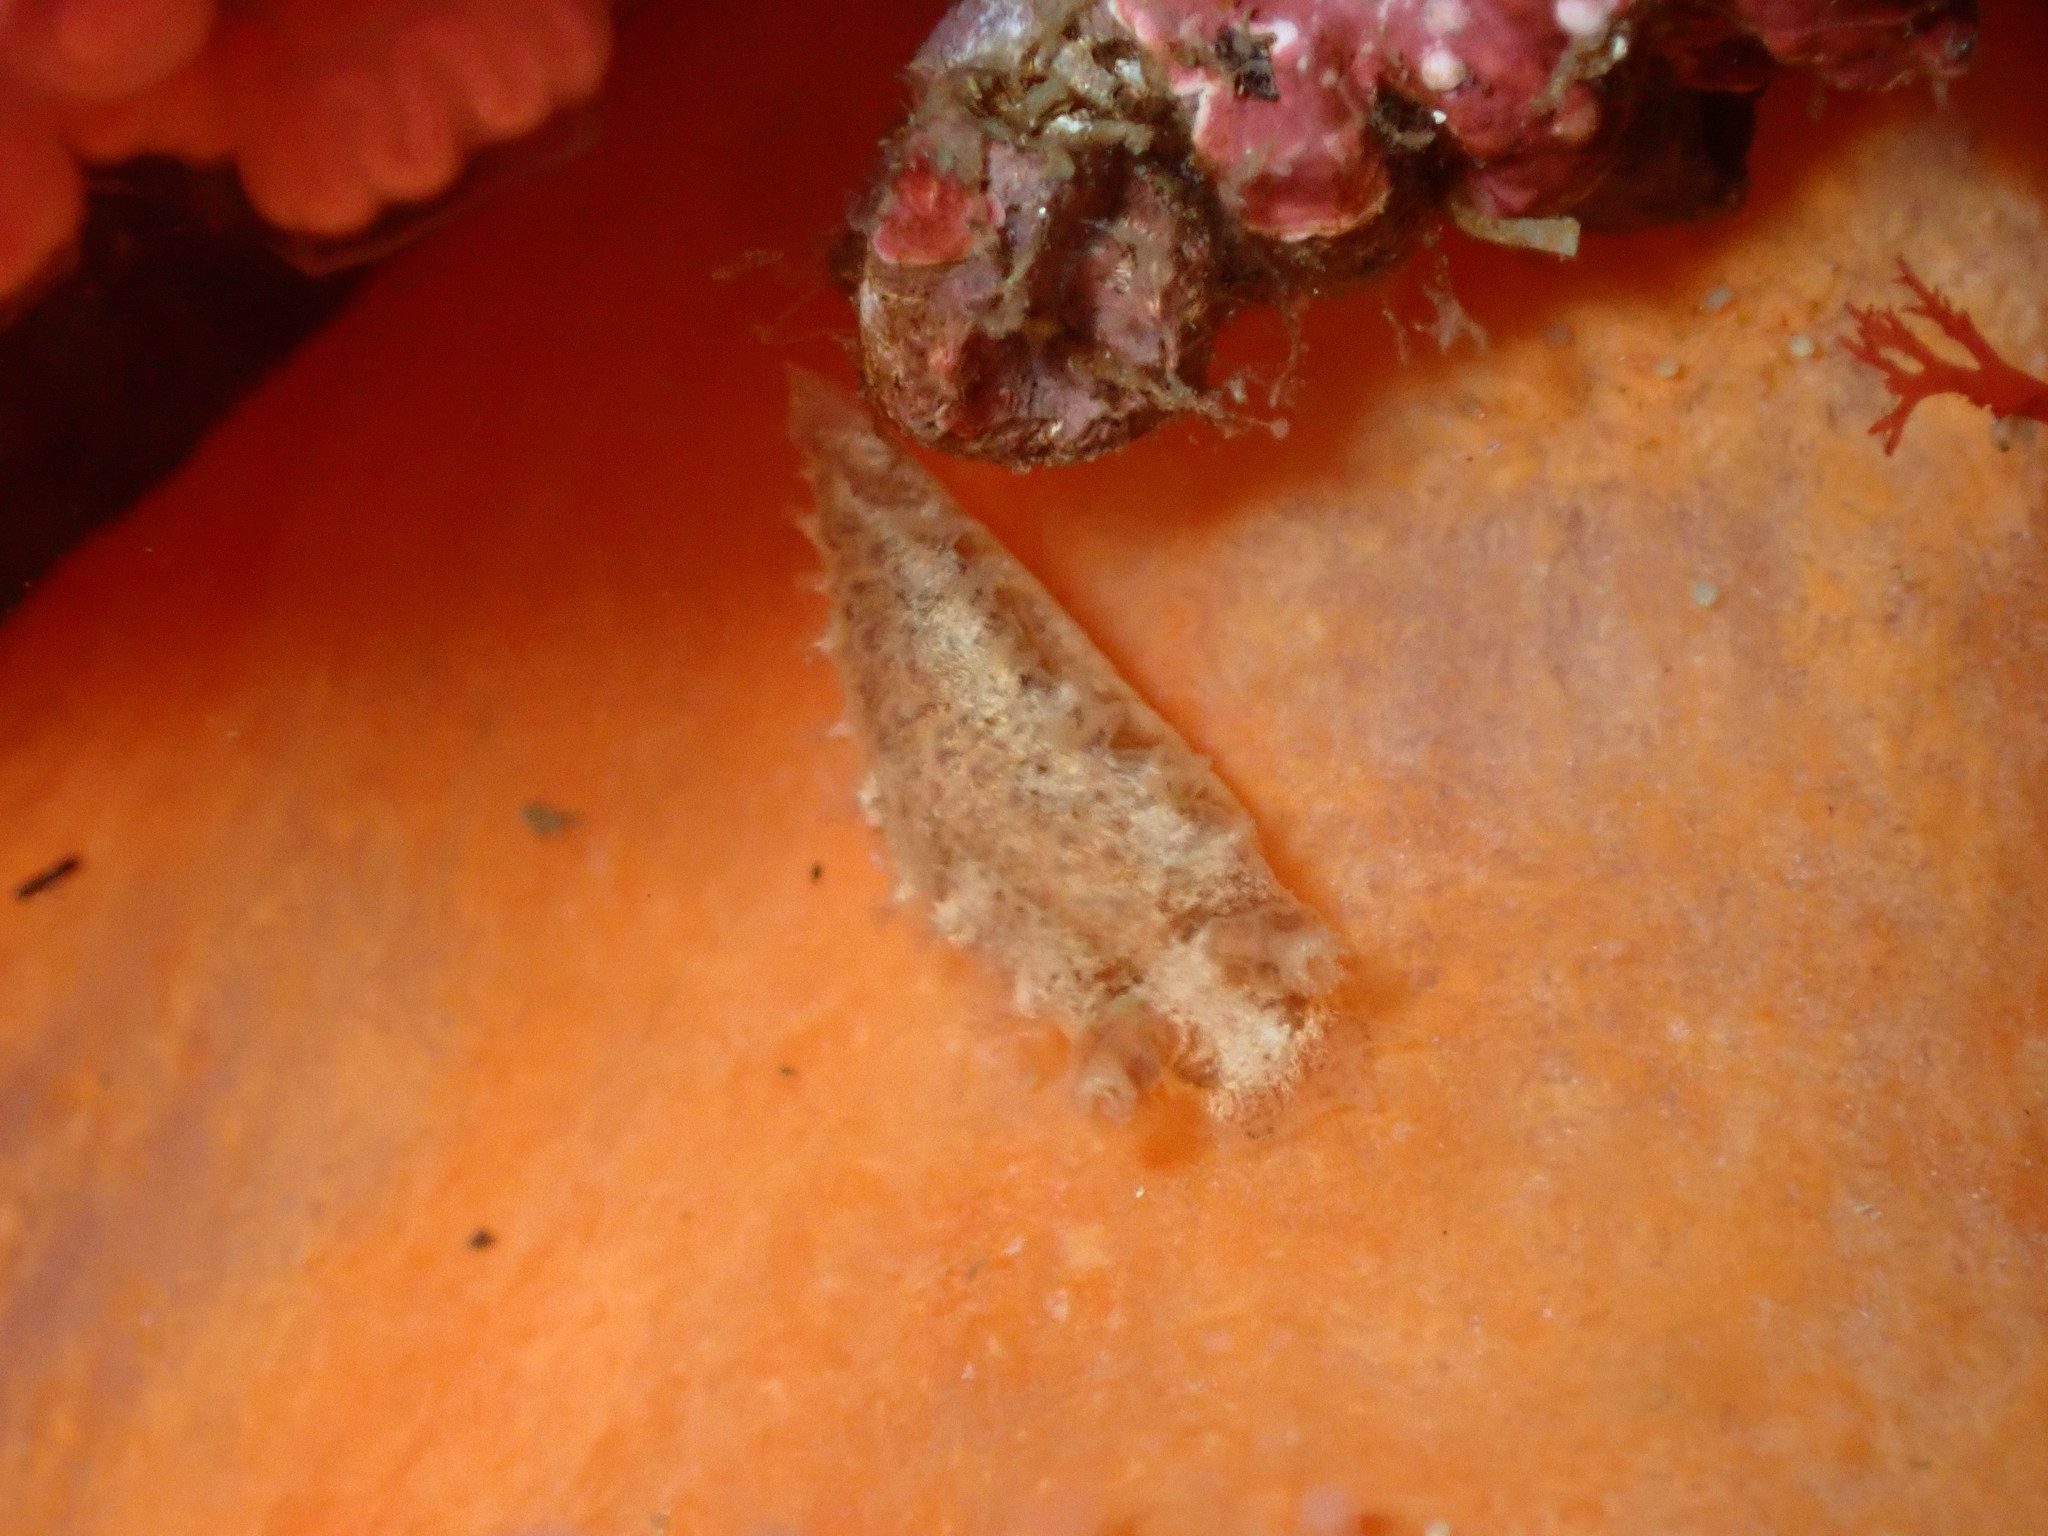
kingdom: Animalia
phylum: Mollusca
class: Gastropoda
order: Nudibranchia
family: Tritoniidae
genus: Duvaucelia
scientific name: Duvaucelia plebeia
